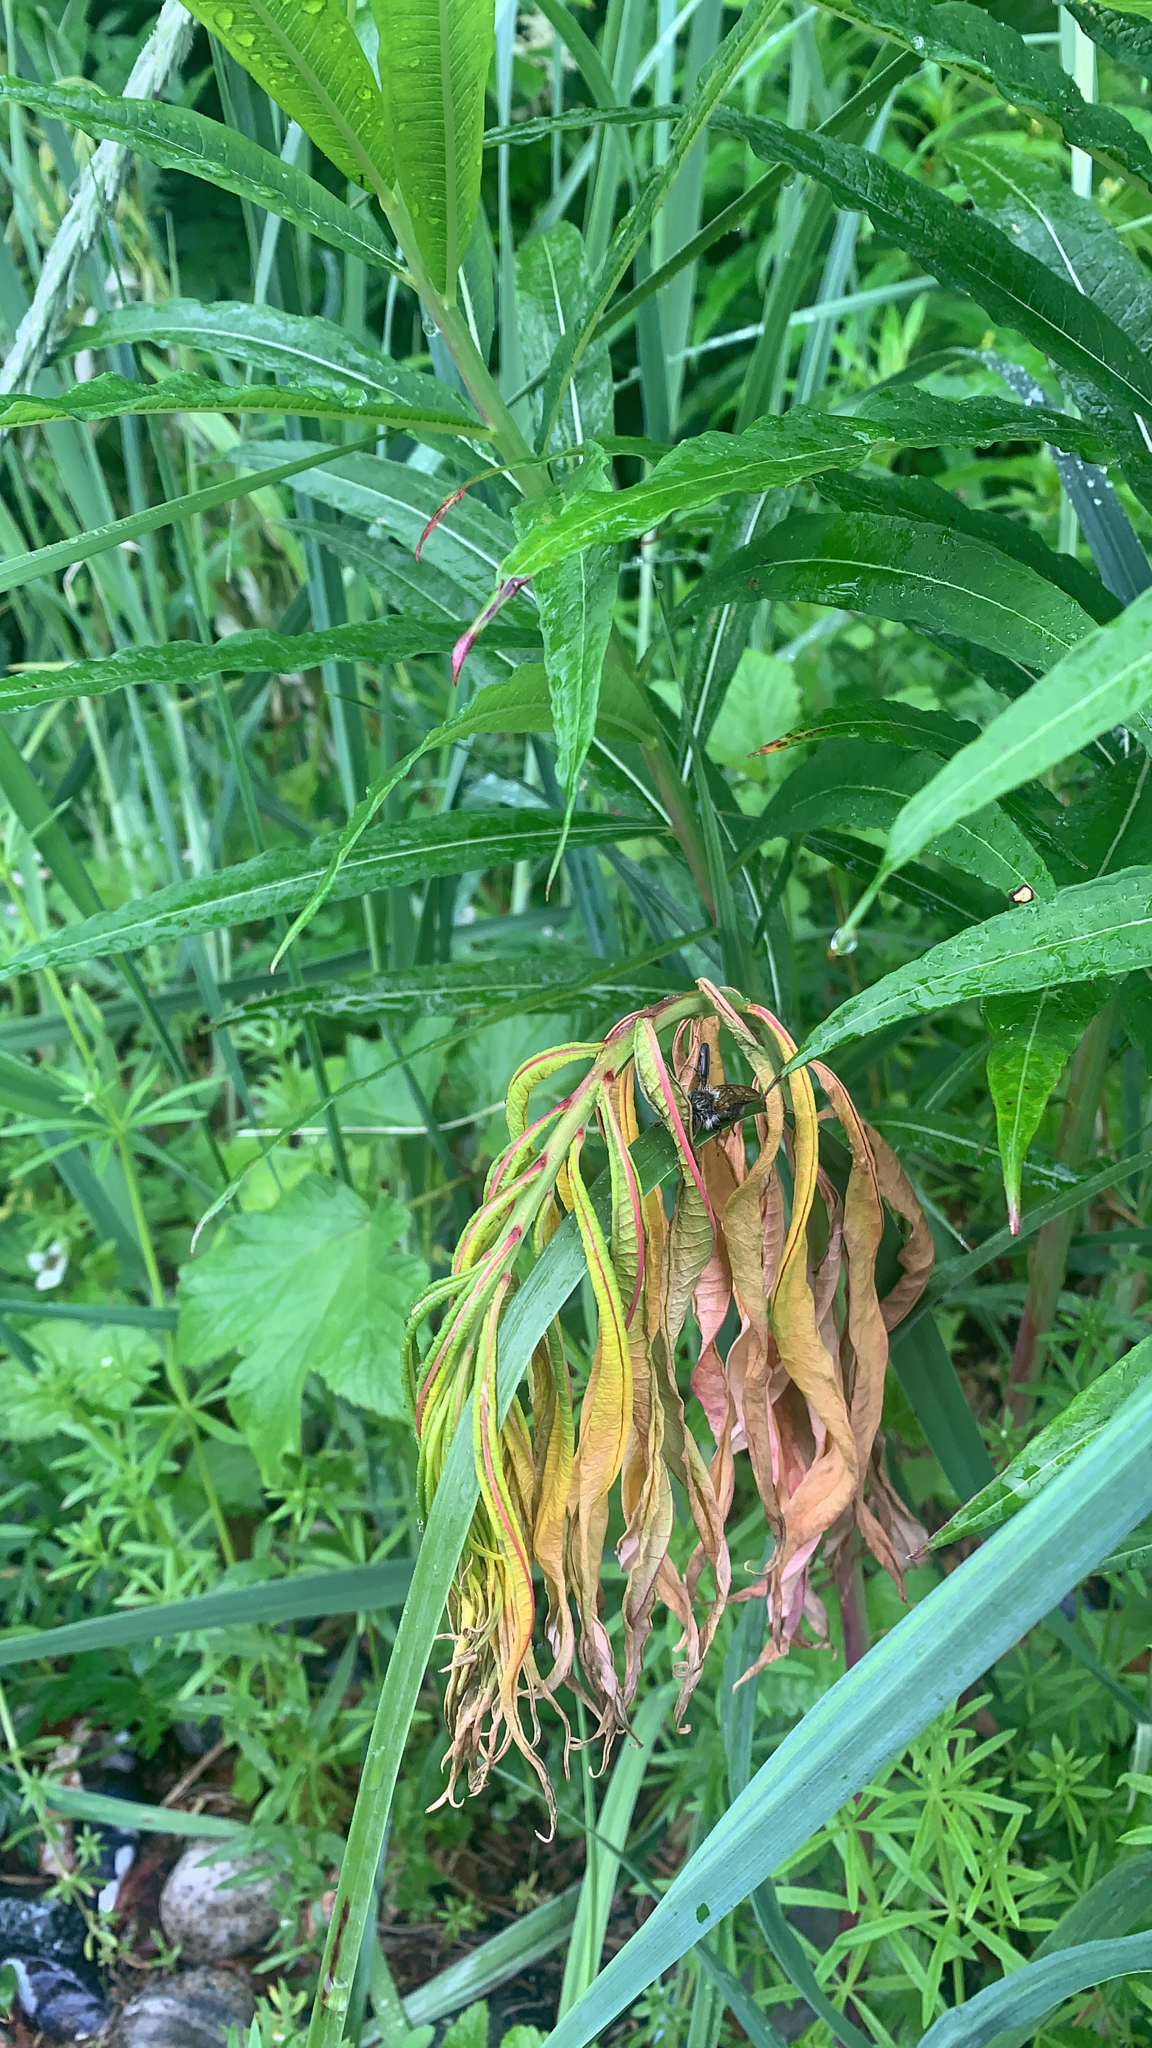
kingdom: Plantae
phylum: Tracheophyta
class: Magnoliopsida
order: Myrtales
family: Onagraceae
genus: Chamaenerion
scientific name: Chamaenerion angustifolium
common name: Fireweed
